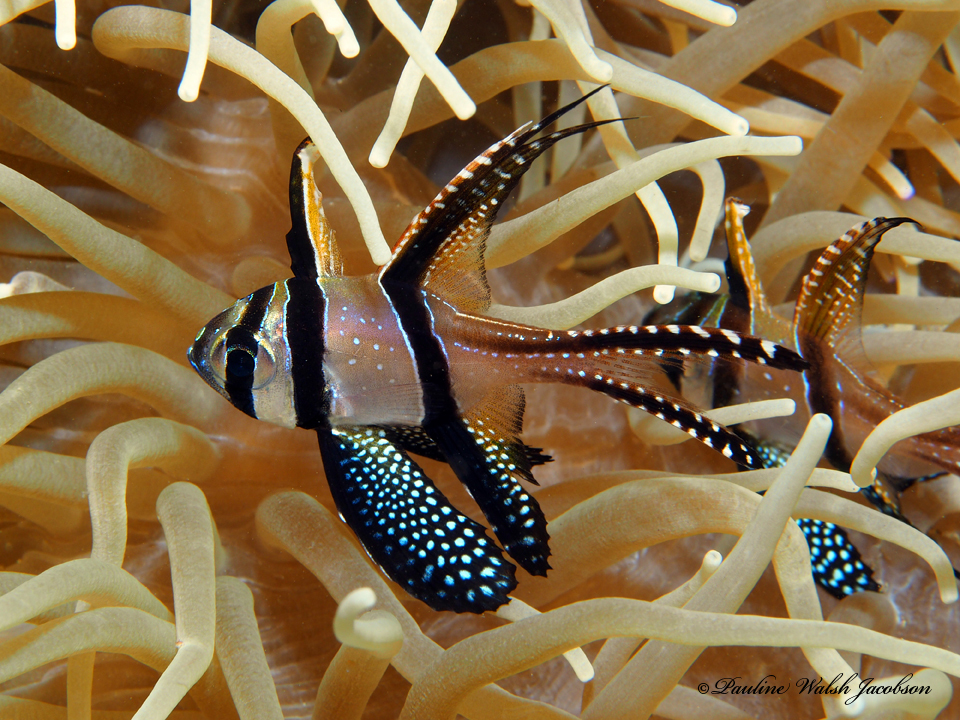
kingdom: Animalia
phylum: Chordata
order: Perciformes
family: Apogonidae
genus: Pterapogon
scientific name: Pterapogon kauderni
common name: Banggai cardinalfish
